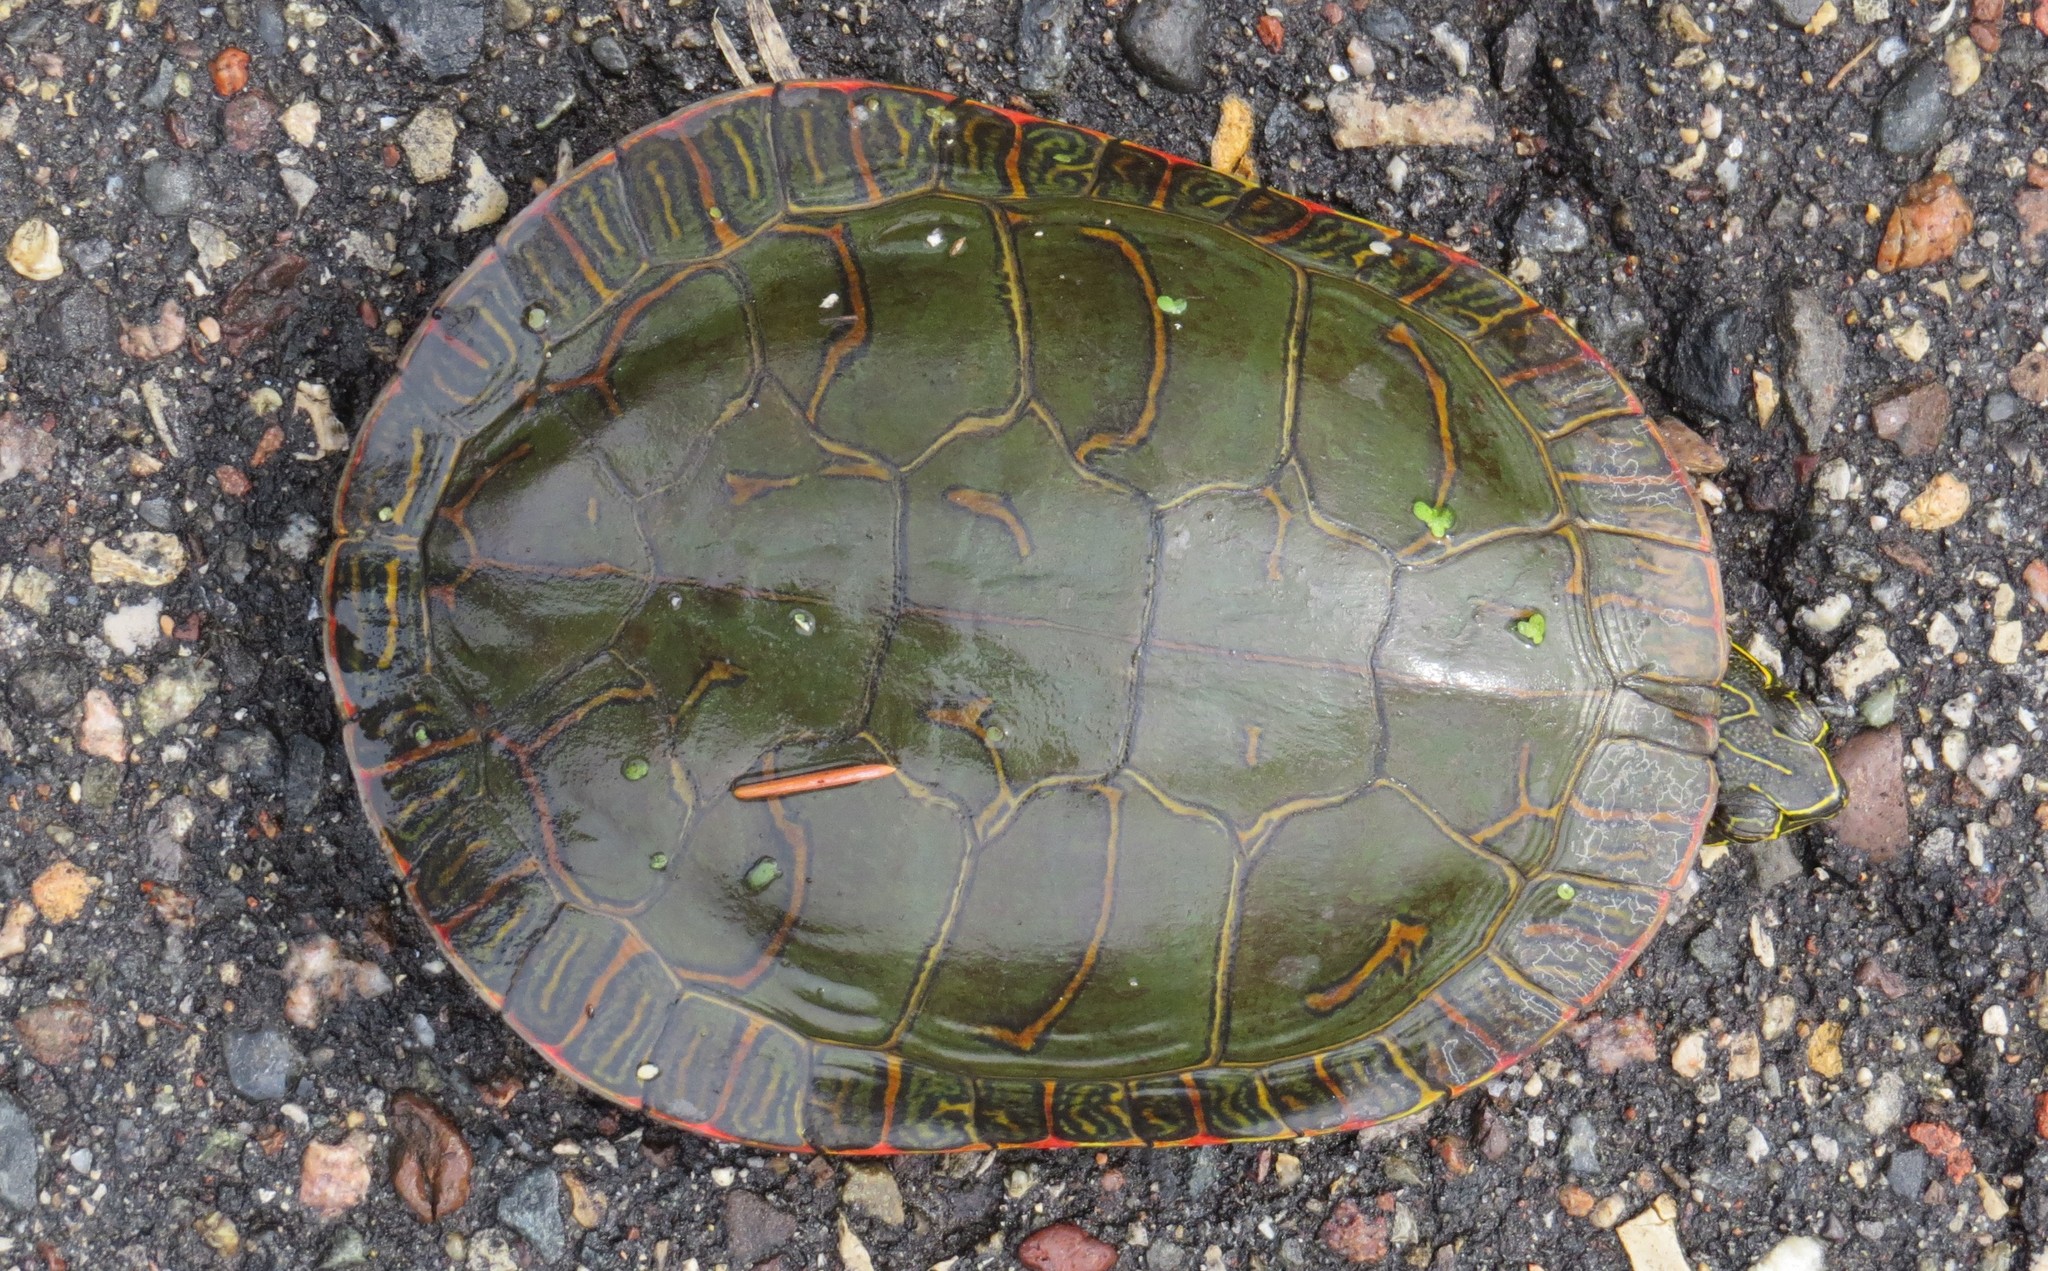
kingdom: Animalia
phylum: Chordata
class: Testudines
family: Emydidae
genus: Chrysemys
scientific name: Chrysemys picta
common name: Painted turtle
